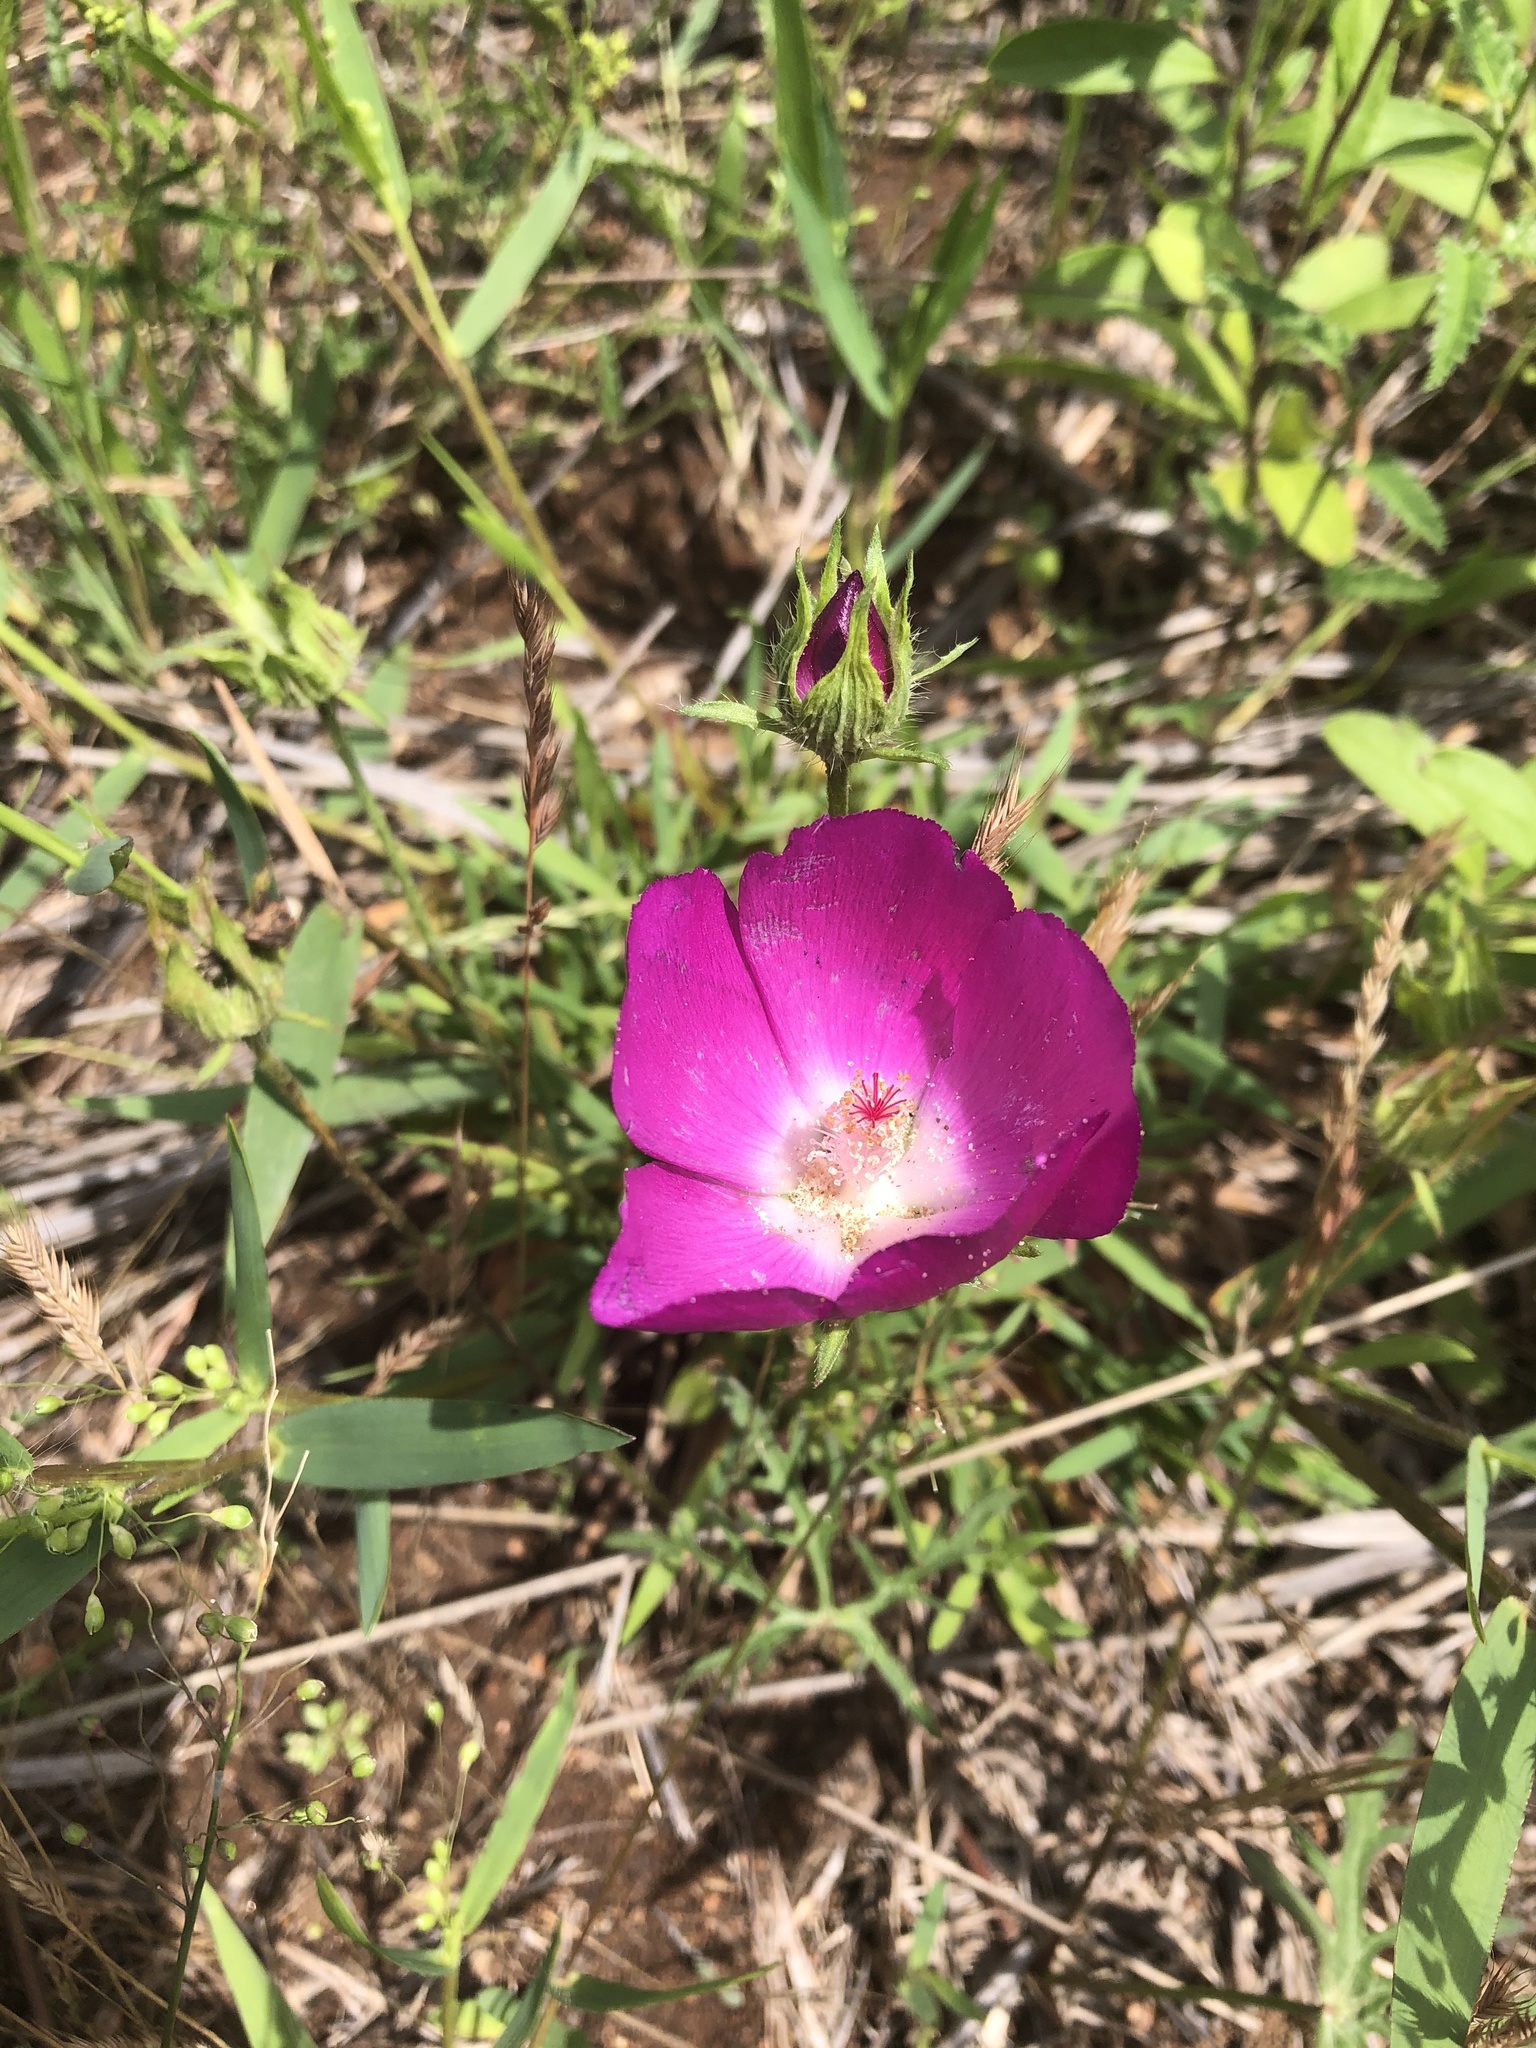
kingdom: Plantae
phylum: Tracheophyta
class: Magnoliopsida
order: Malvales
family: Malvaceae
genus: Callirhoe
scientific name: Callirhoe involucrata
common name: Purple poppy-mallow
